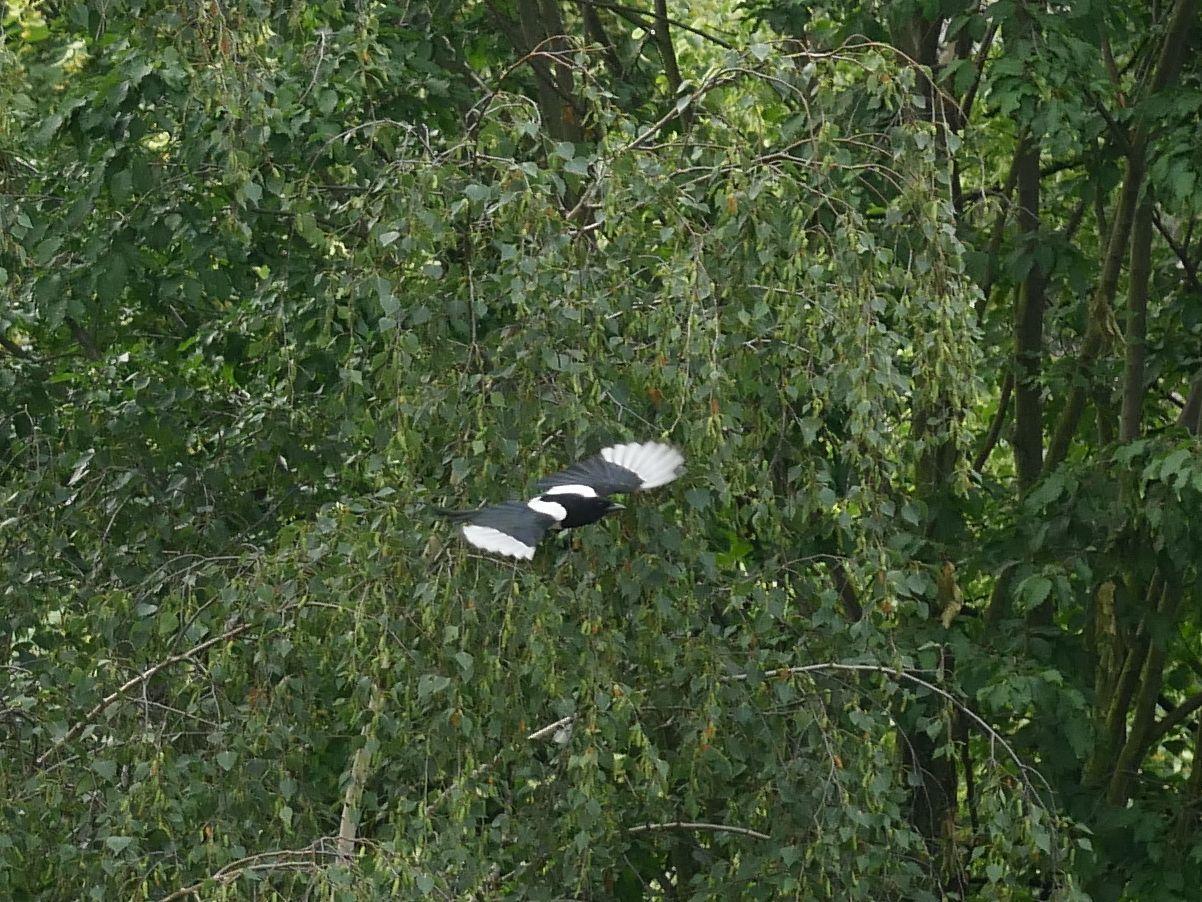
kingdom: Animalia
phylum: Chordata
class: Aves
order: Passeriformes
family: Corvidae
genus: Pica
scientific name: Pica pica
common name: Eurasian magpie
